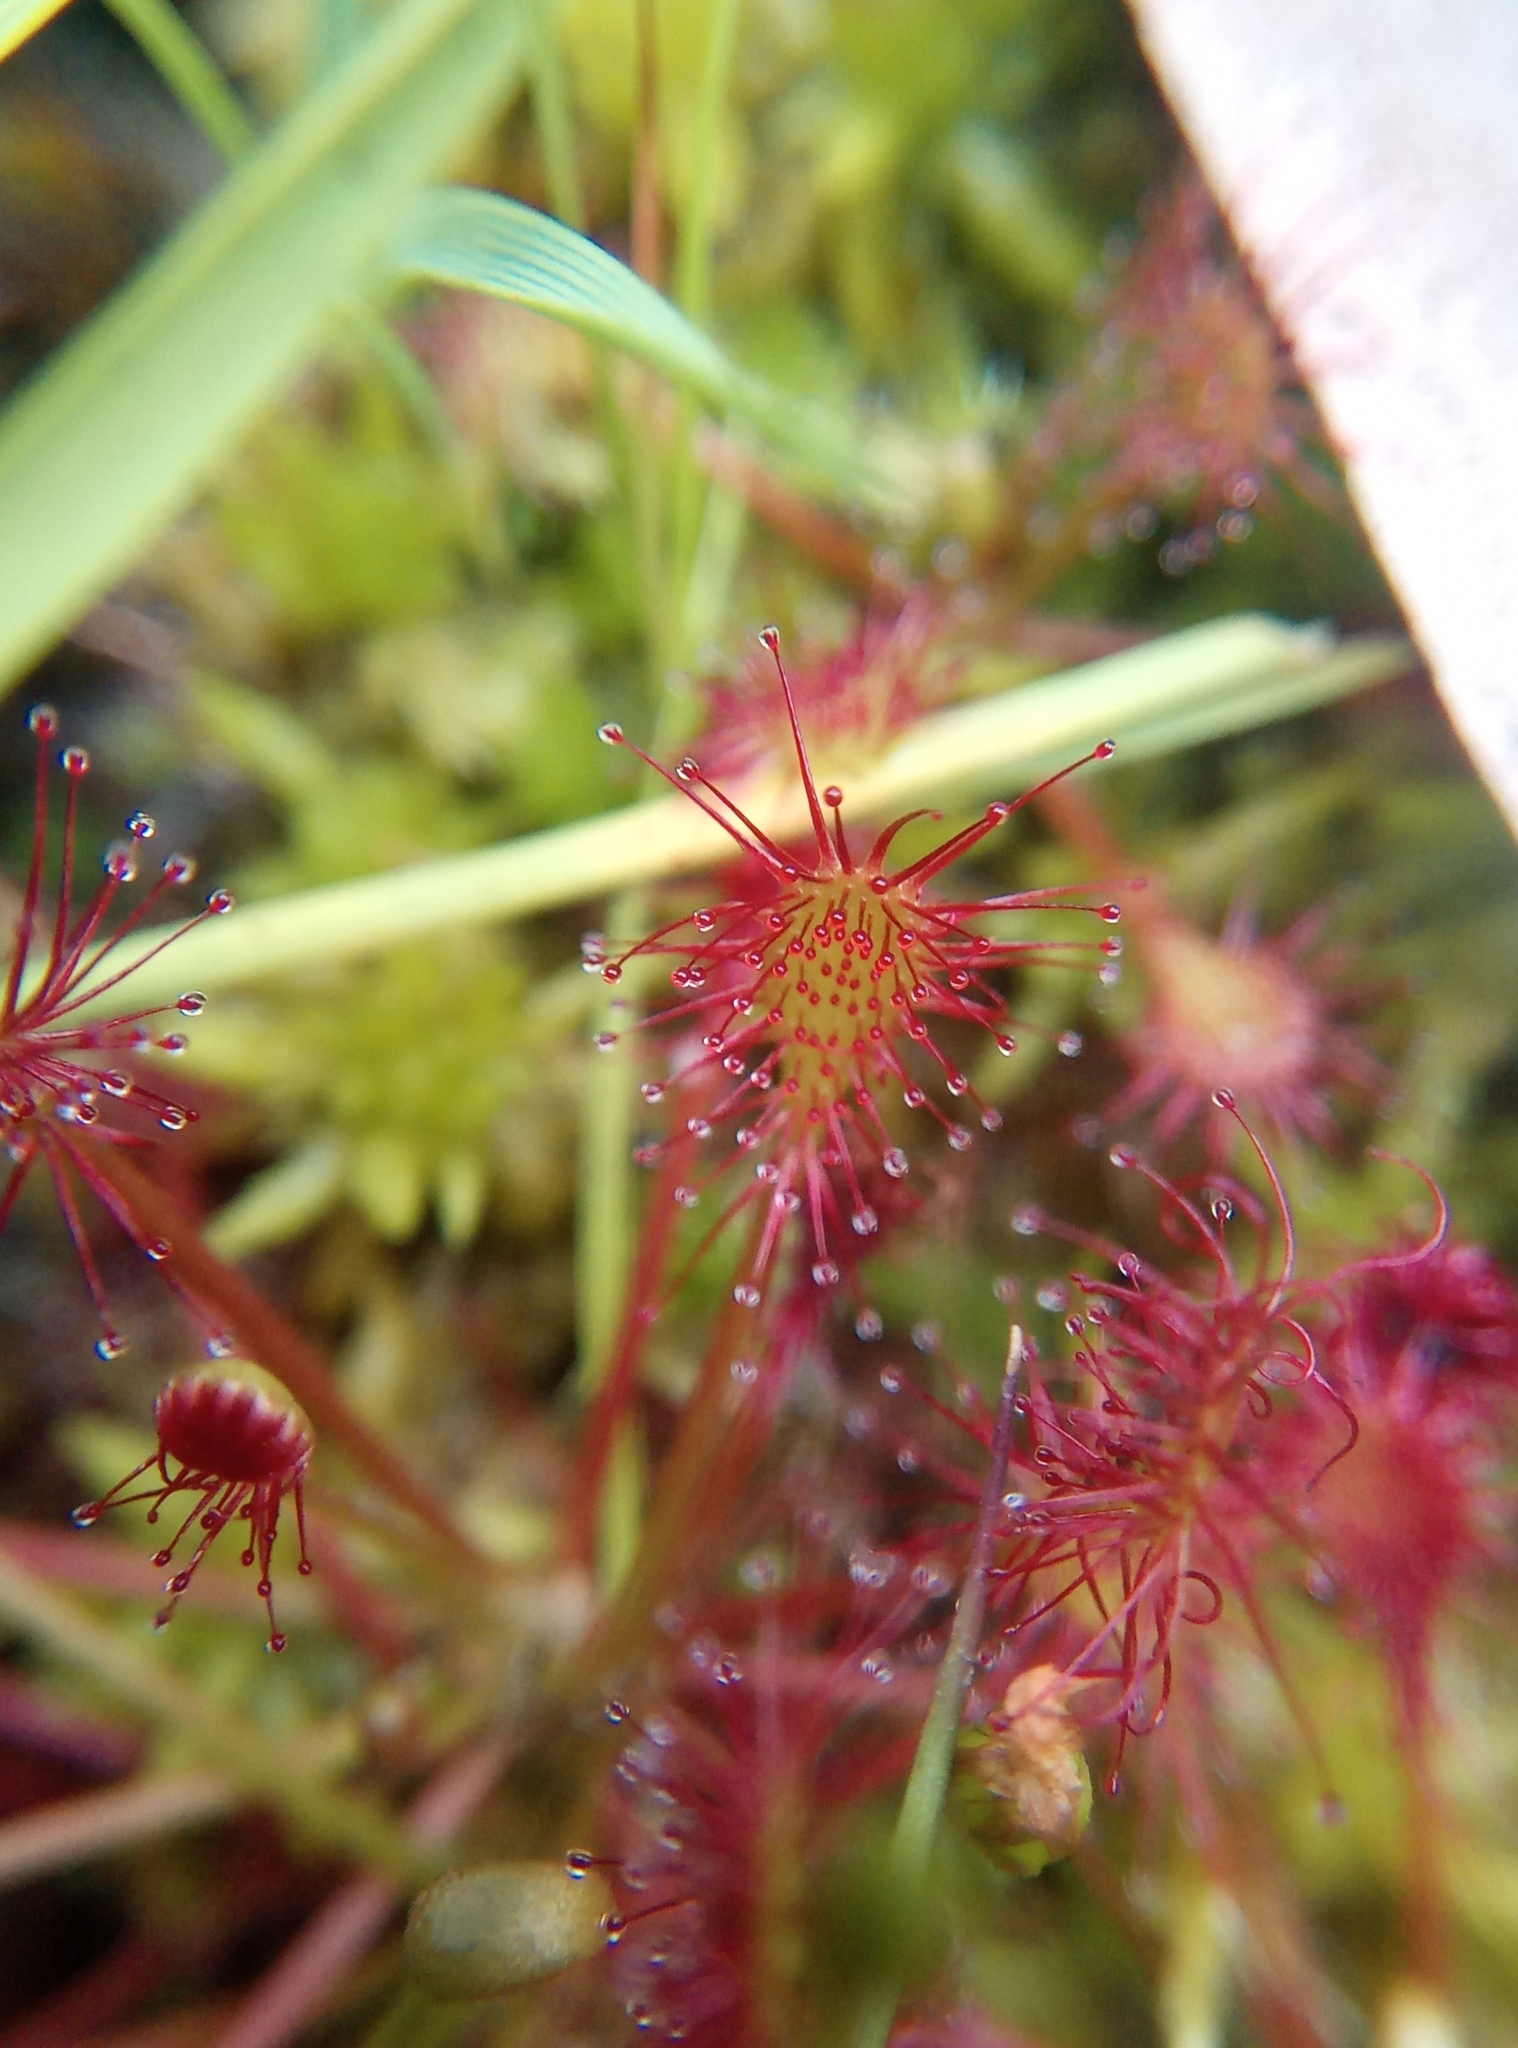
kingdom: Plantae
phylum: Tracheophyta
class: Magnoliopsida
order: Caryophyllales
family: Droseraceae
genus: Drosera
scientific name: Drosera intermedia
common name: Oblong-leaved sundew
